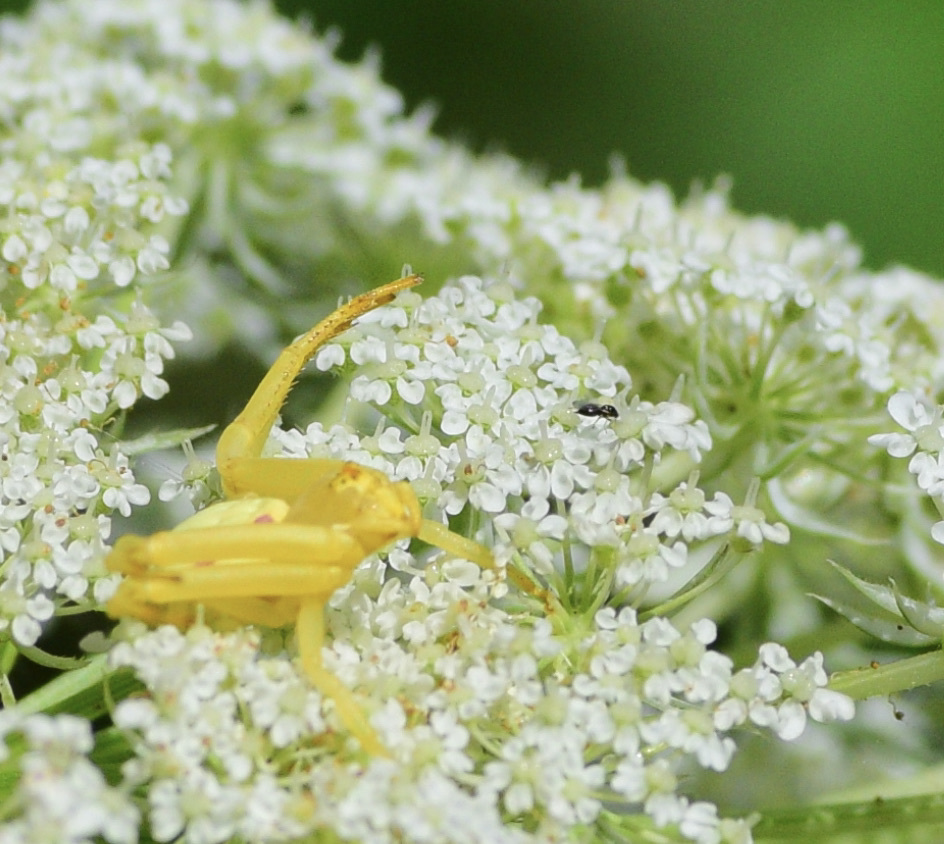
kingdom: Animalia
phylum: Arthropoda
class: Arachnida
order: Araneae
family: Thomisidae
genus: Misumena
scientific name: Misumena vatia
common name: Goldenrod crab spider
